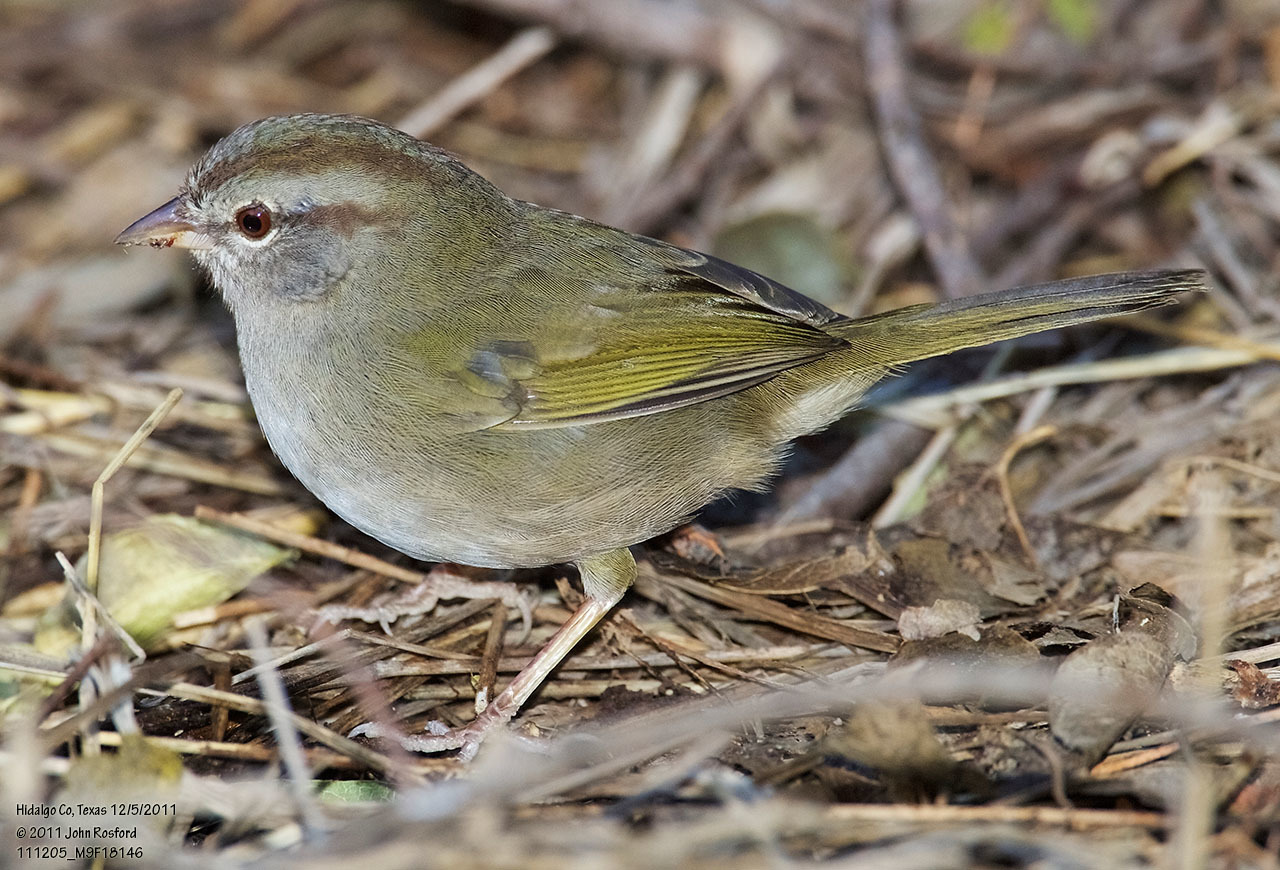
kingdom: Animalia
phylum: Chordata
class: Aves
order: Passeriformes
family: Passerellidae
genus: Arremonops
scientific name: Arremonops rufivirgatus
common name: Olive sparrow
